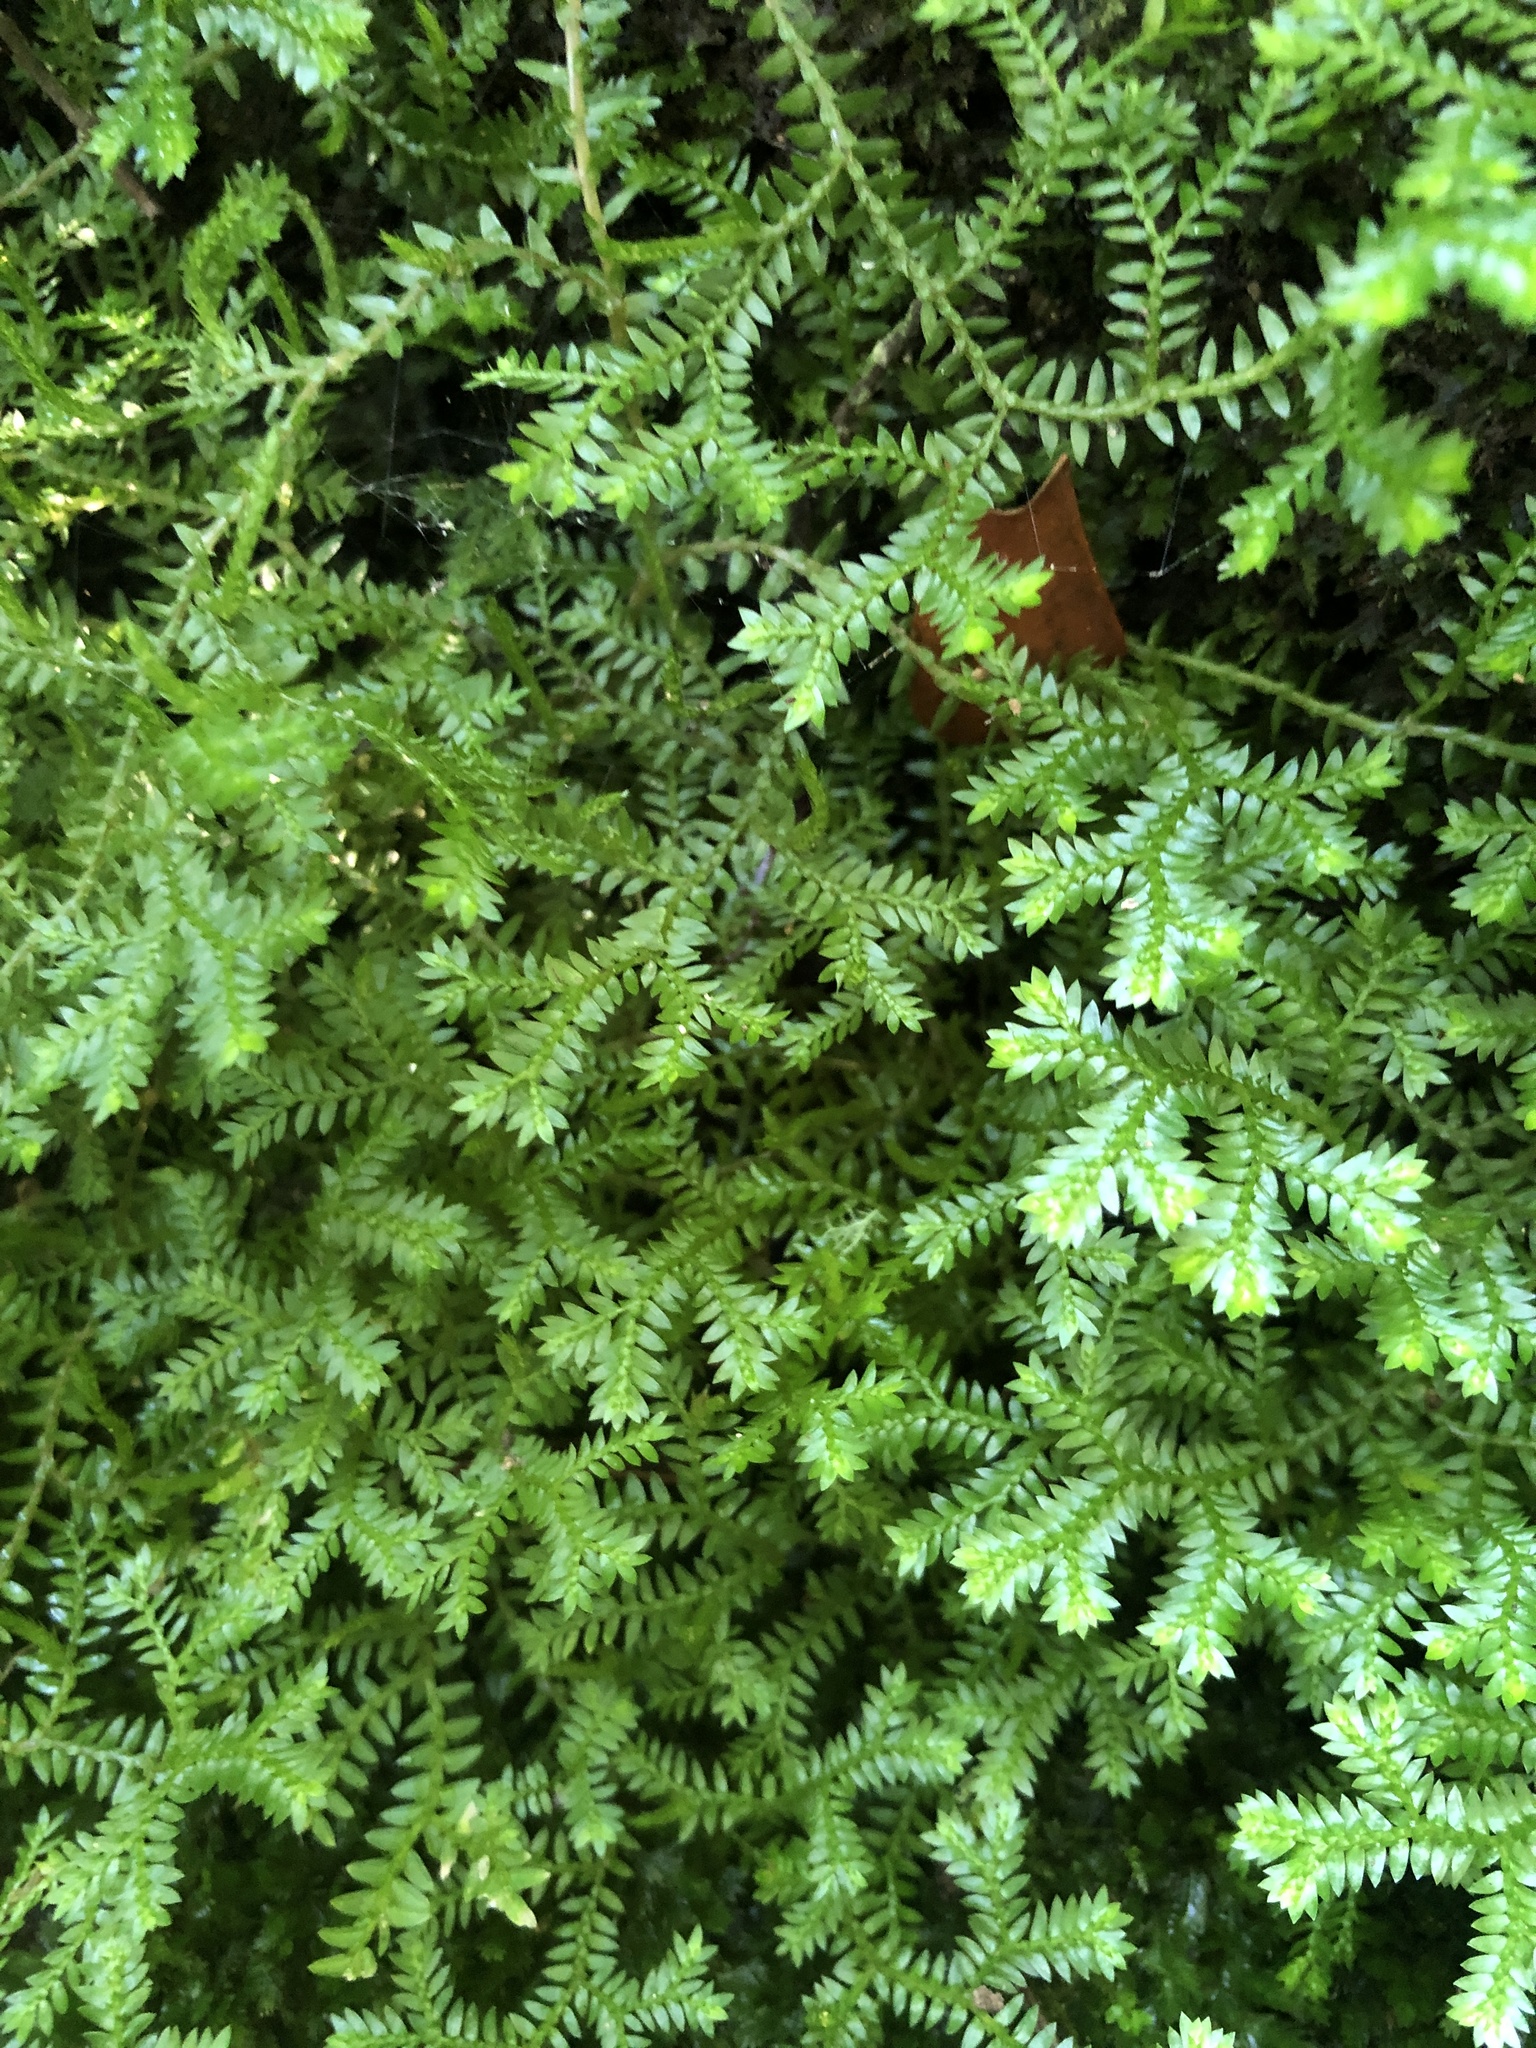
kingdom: Plantae
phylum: Tracheophyta
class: Lycopodiopsida
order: Selaginellales
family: Selaginellaceae
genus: Selaginella
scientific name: Selaginella kraussiana
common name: Krauss' spikemoss
